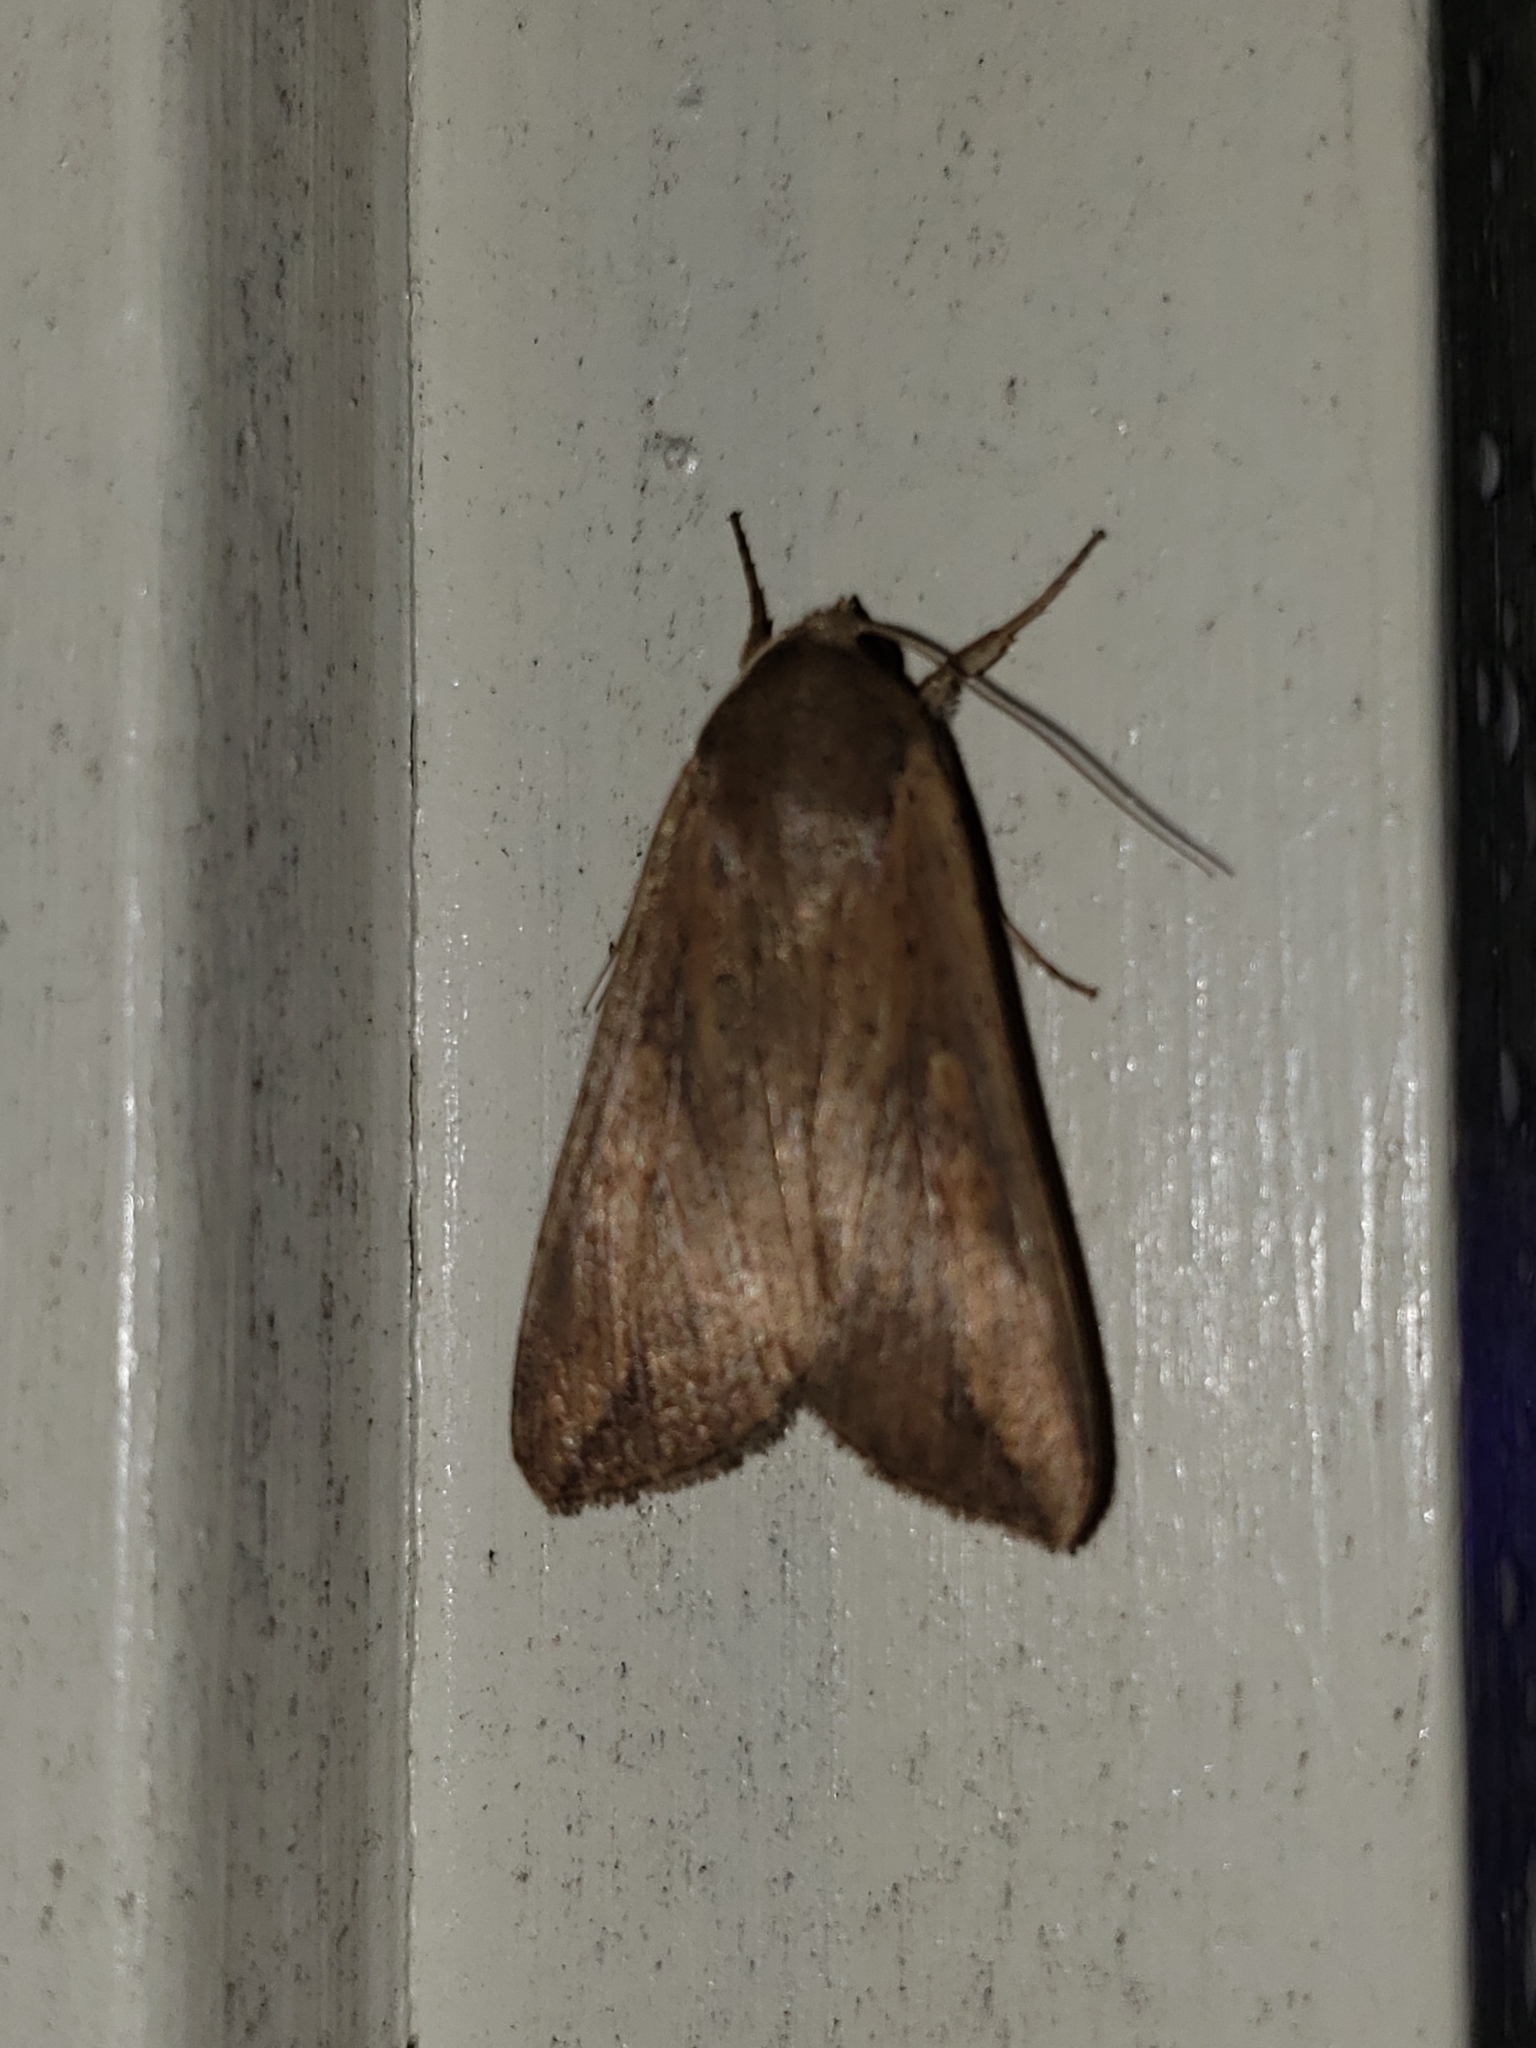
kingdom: Animalia
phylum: Arthropoda
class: Insecta
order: Lepidoptera
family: Noctuidae
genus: Mythimna
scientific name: Mythimna unipuncta
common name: White-speck
